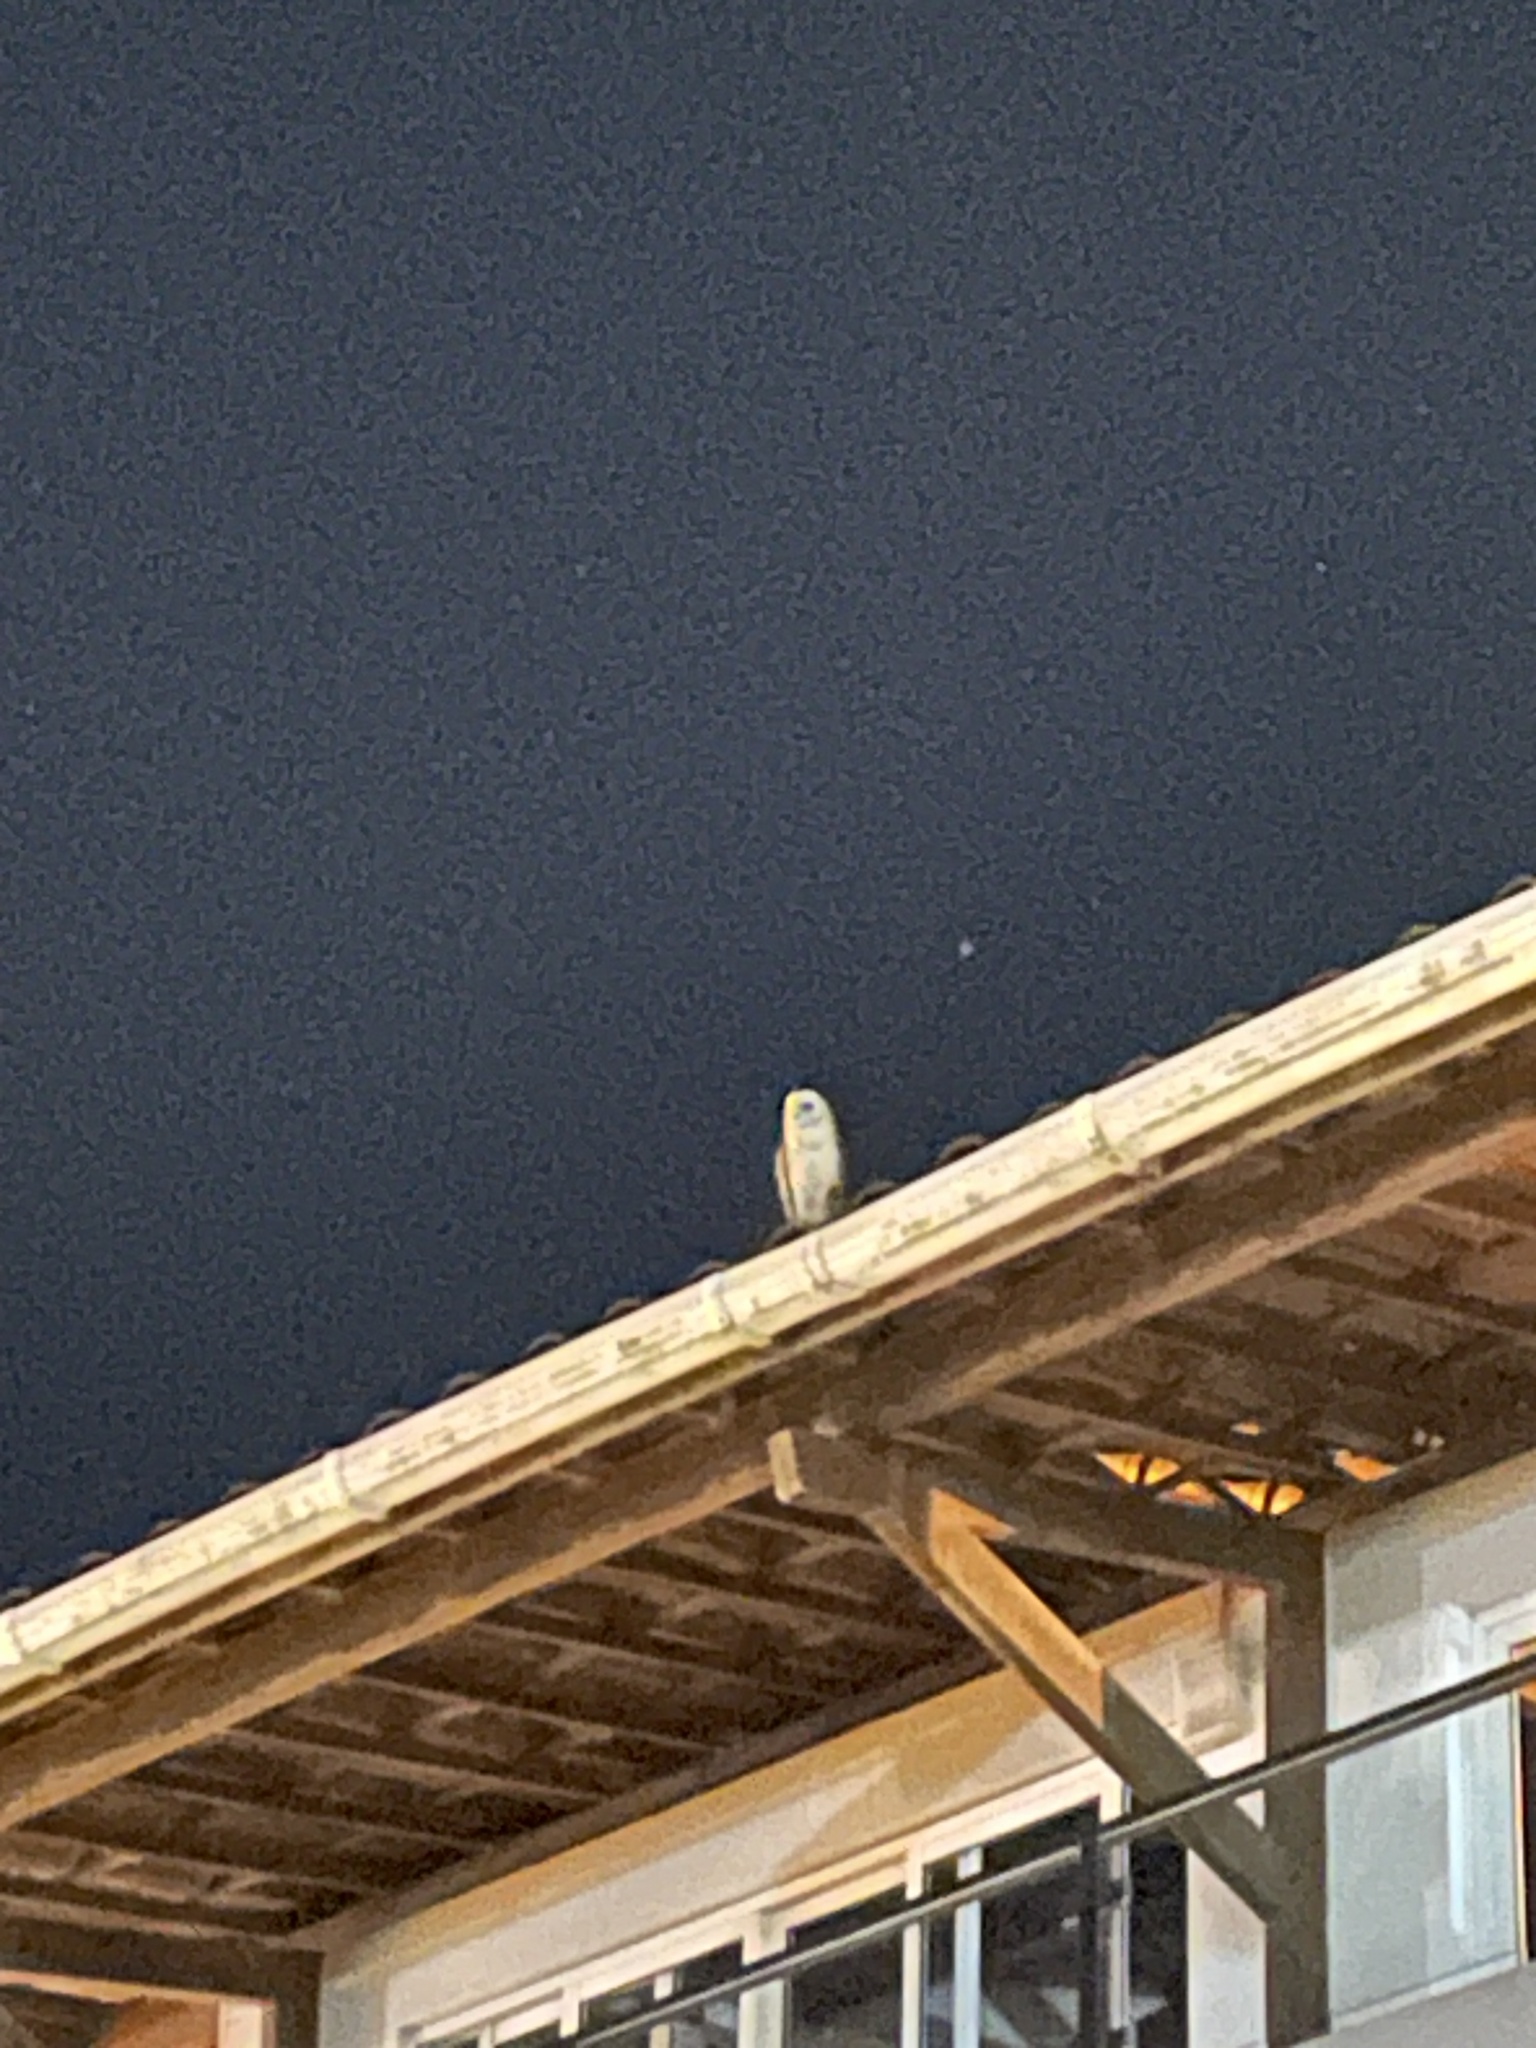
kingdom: Animalia
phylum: Chordata
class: Aves
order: Strigiformes
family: Tytonidae
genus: Tyto
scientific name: Tyto furcata
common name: American barn owl
